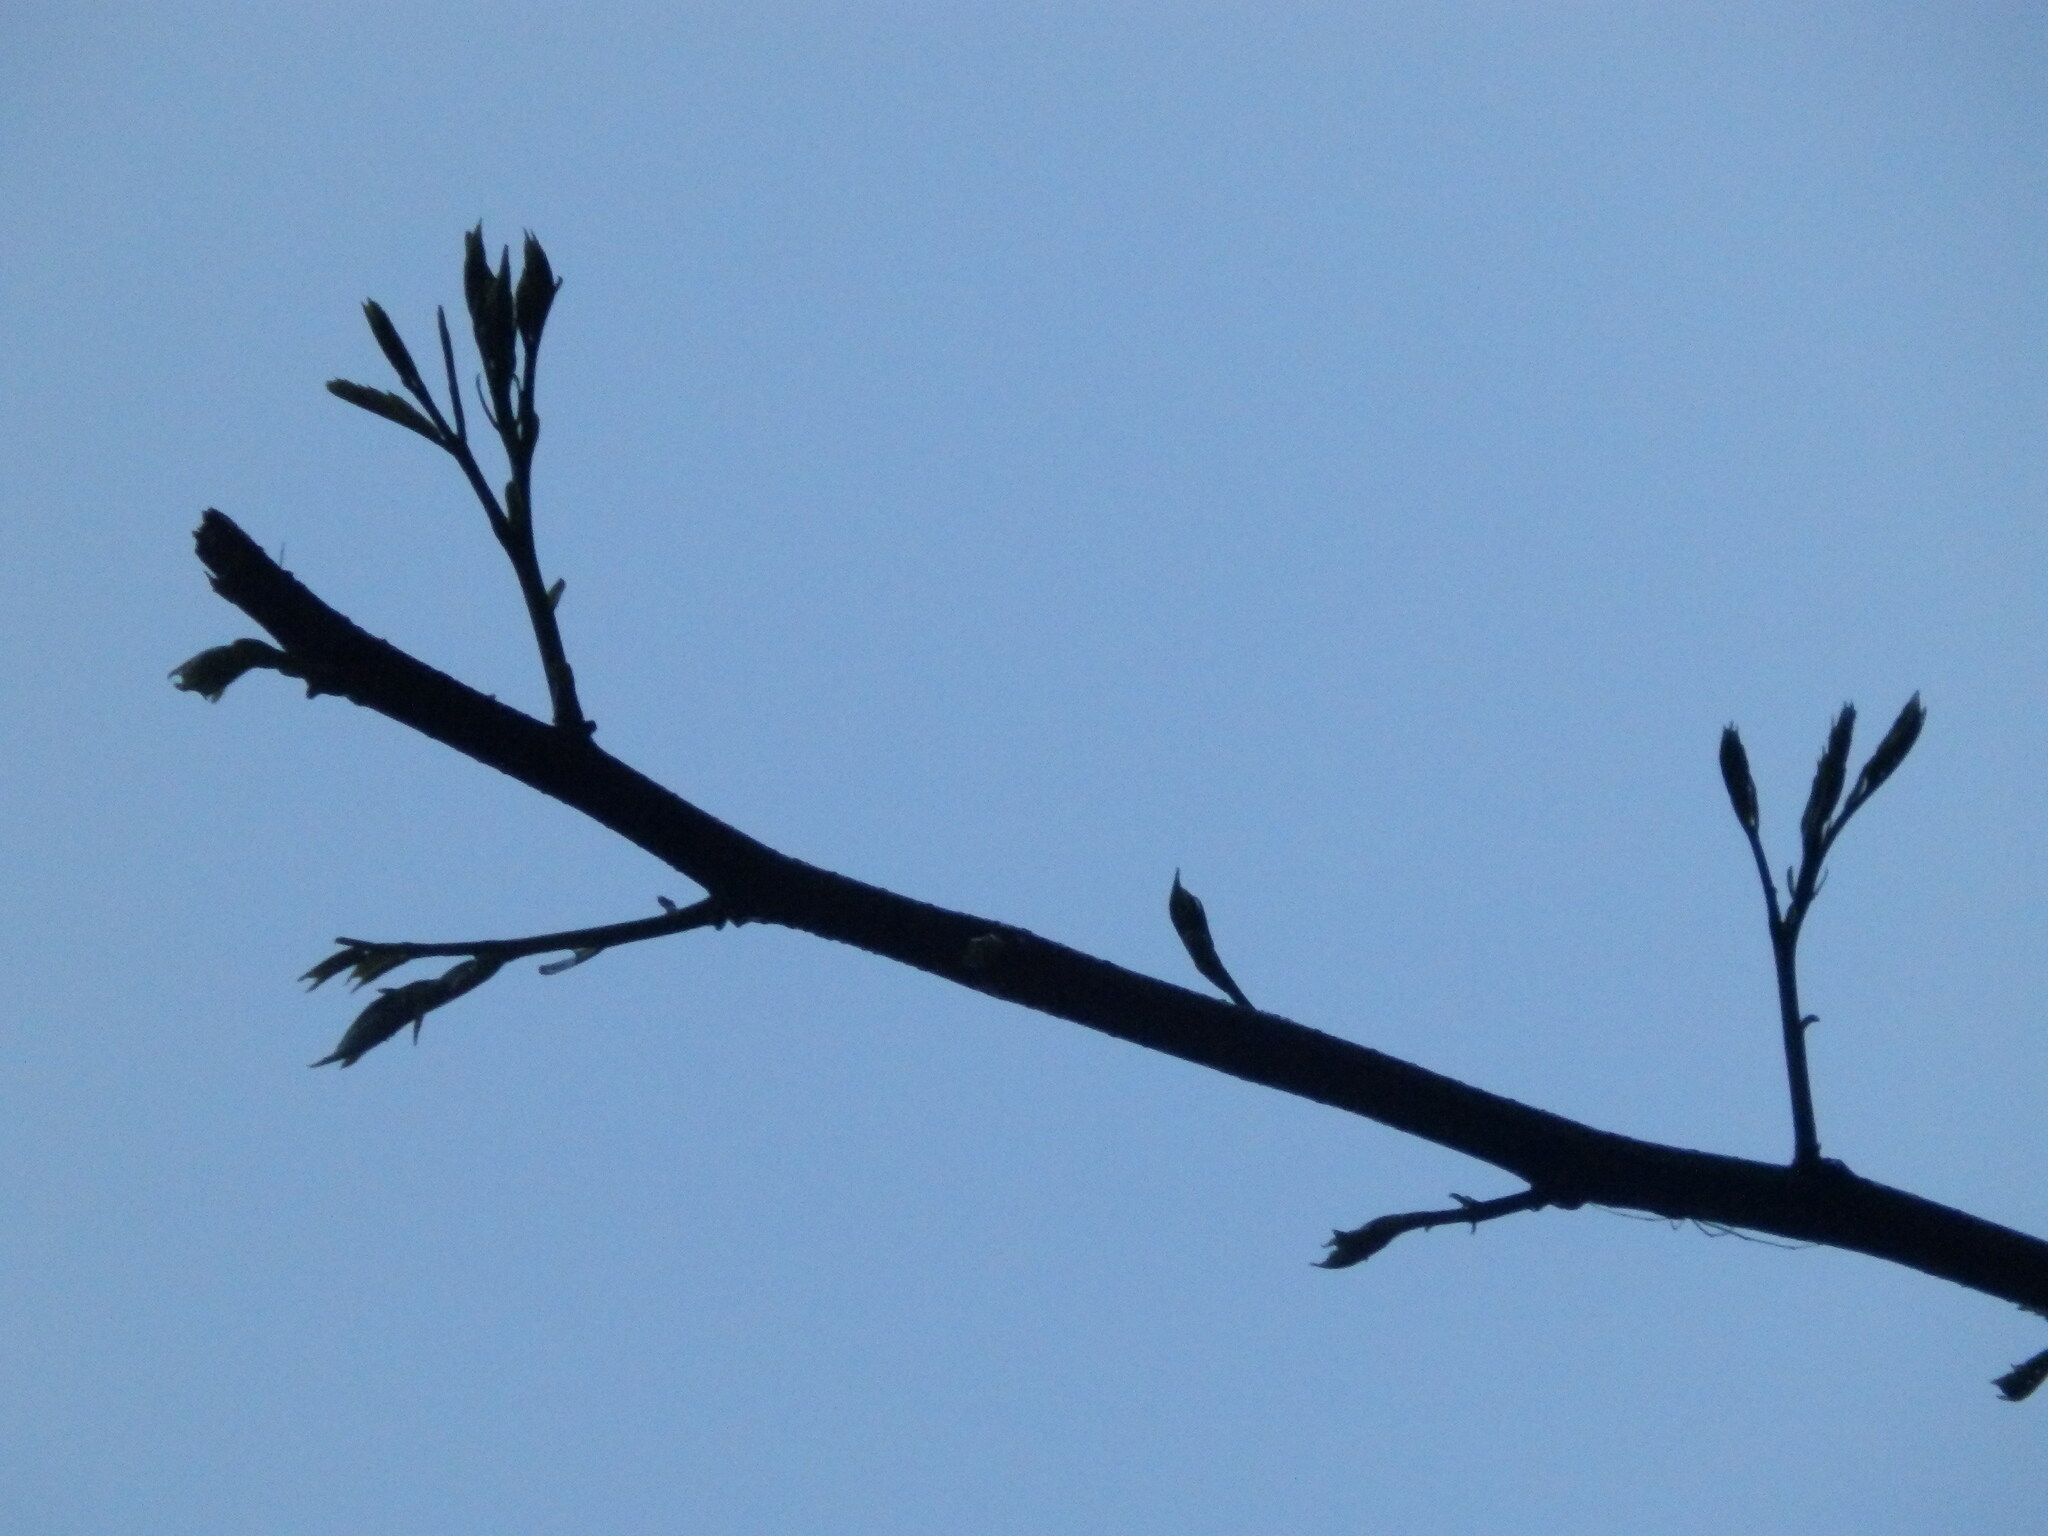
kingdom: Plantae
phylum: Tracheophyta
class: Magnoliopsida
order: Fabales
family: Fabaceae
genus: Albizia
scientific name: Albizia julibrissin
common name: Silktree
